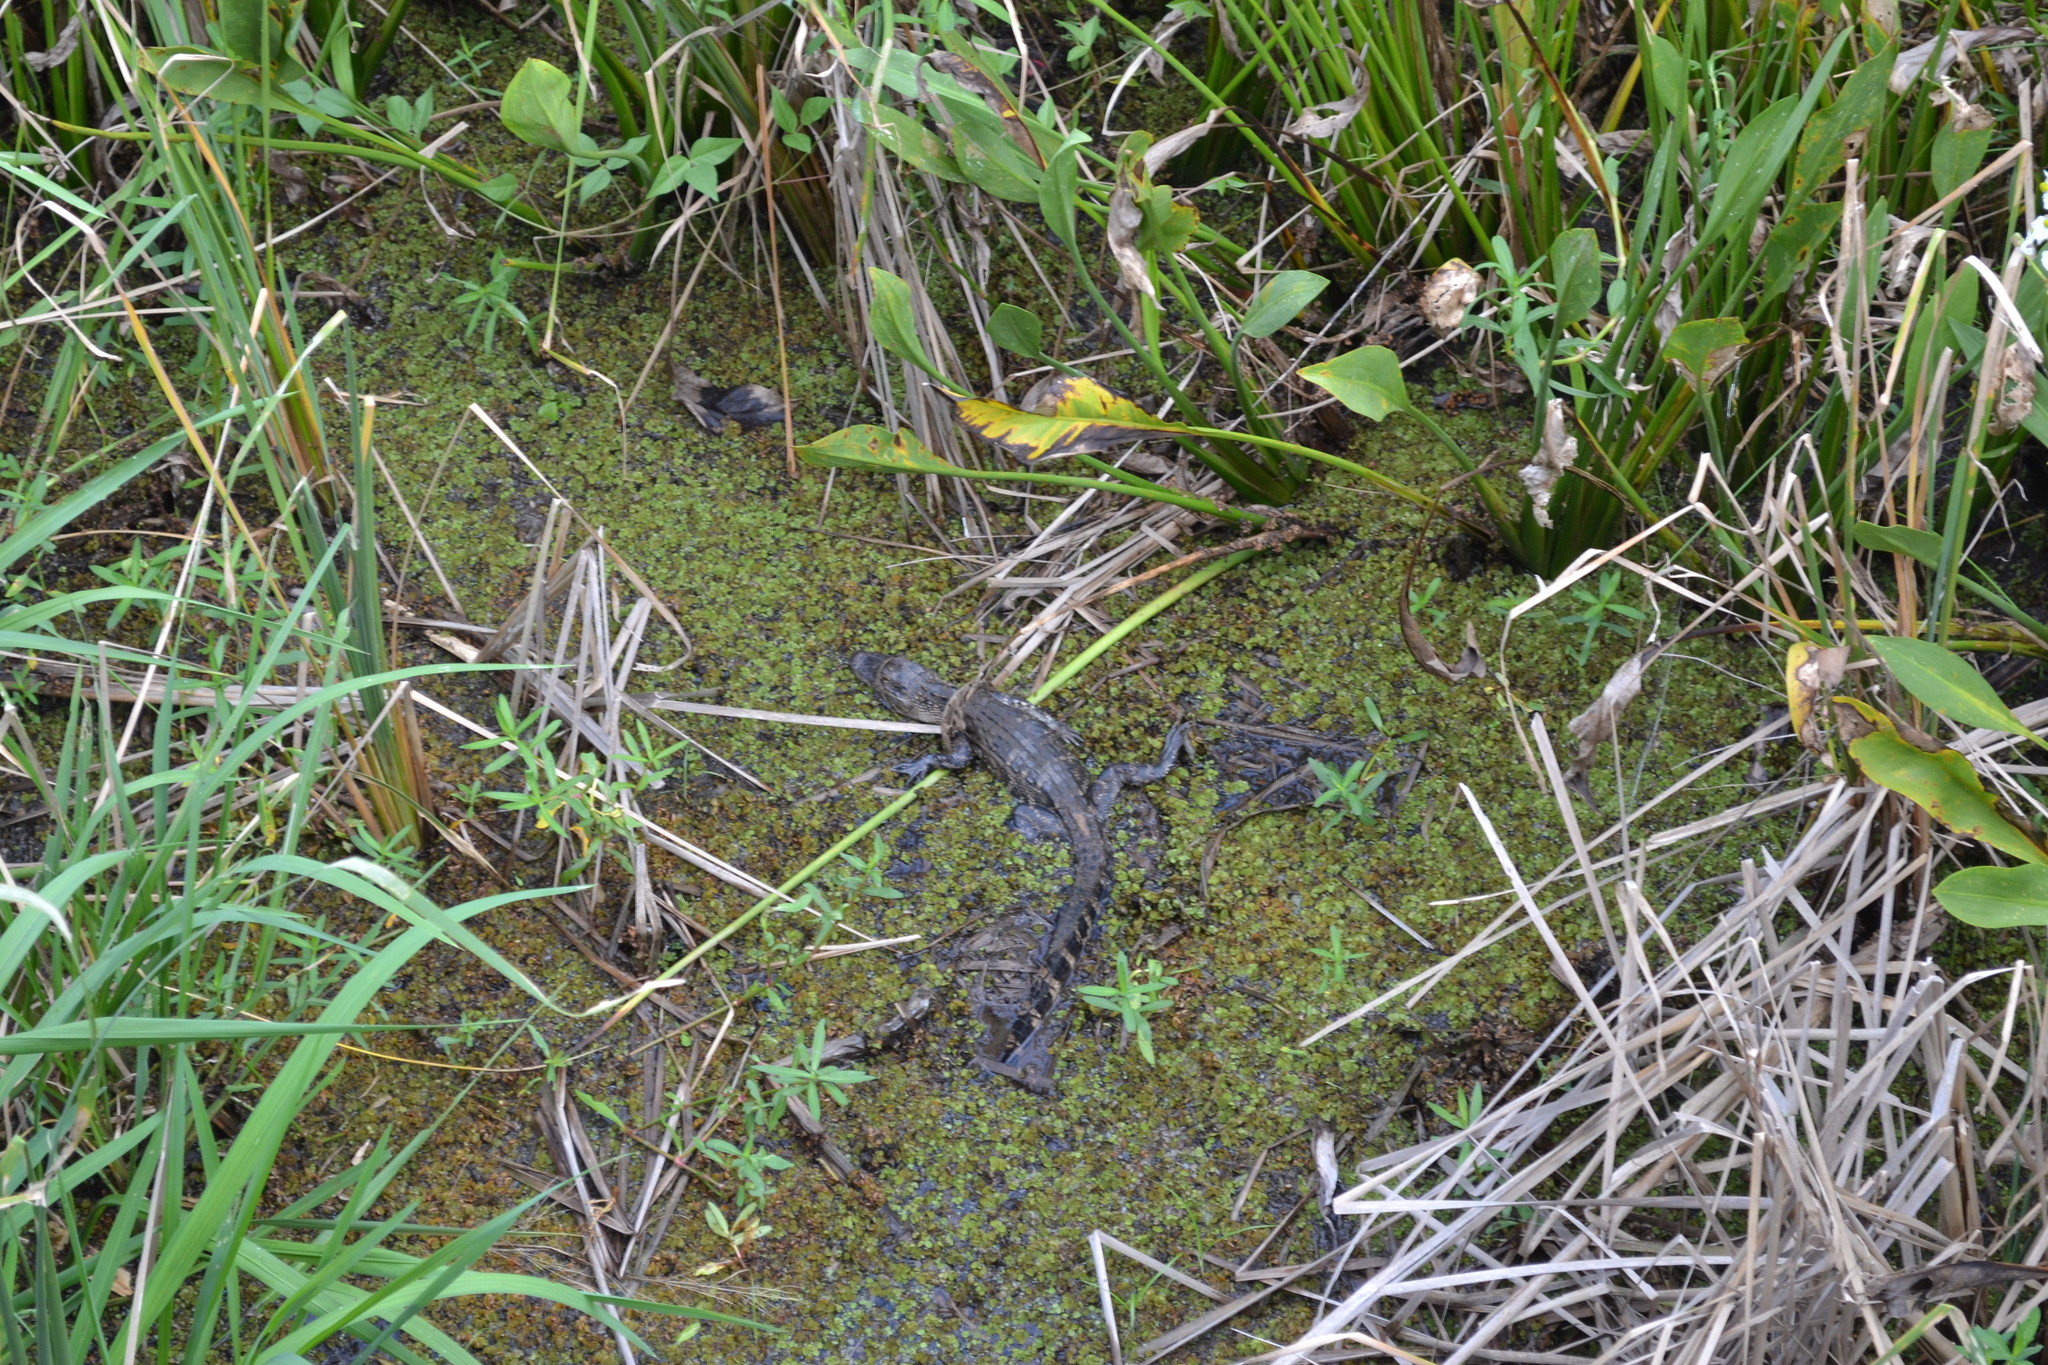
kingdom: Animalia
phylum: Chordata
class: Crocodylia
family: Alligatoridae
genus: Alligator
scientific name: Alligator mississippiensis
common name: American alligator
